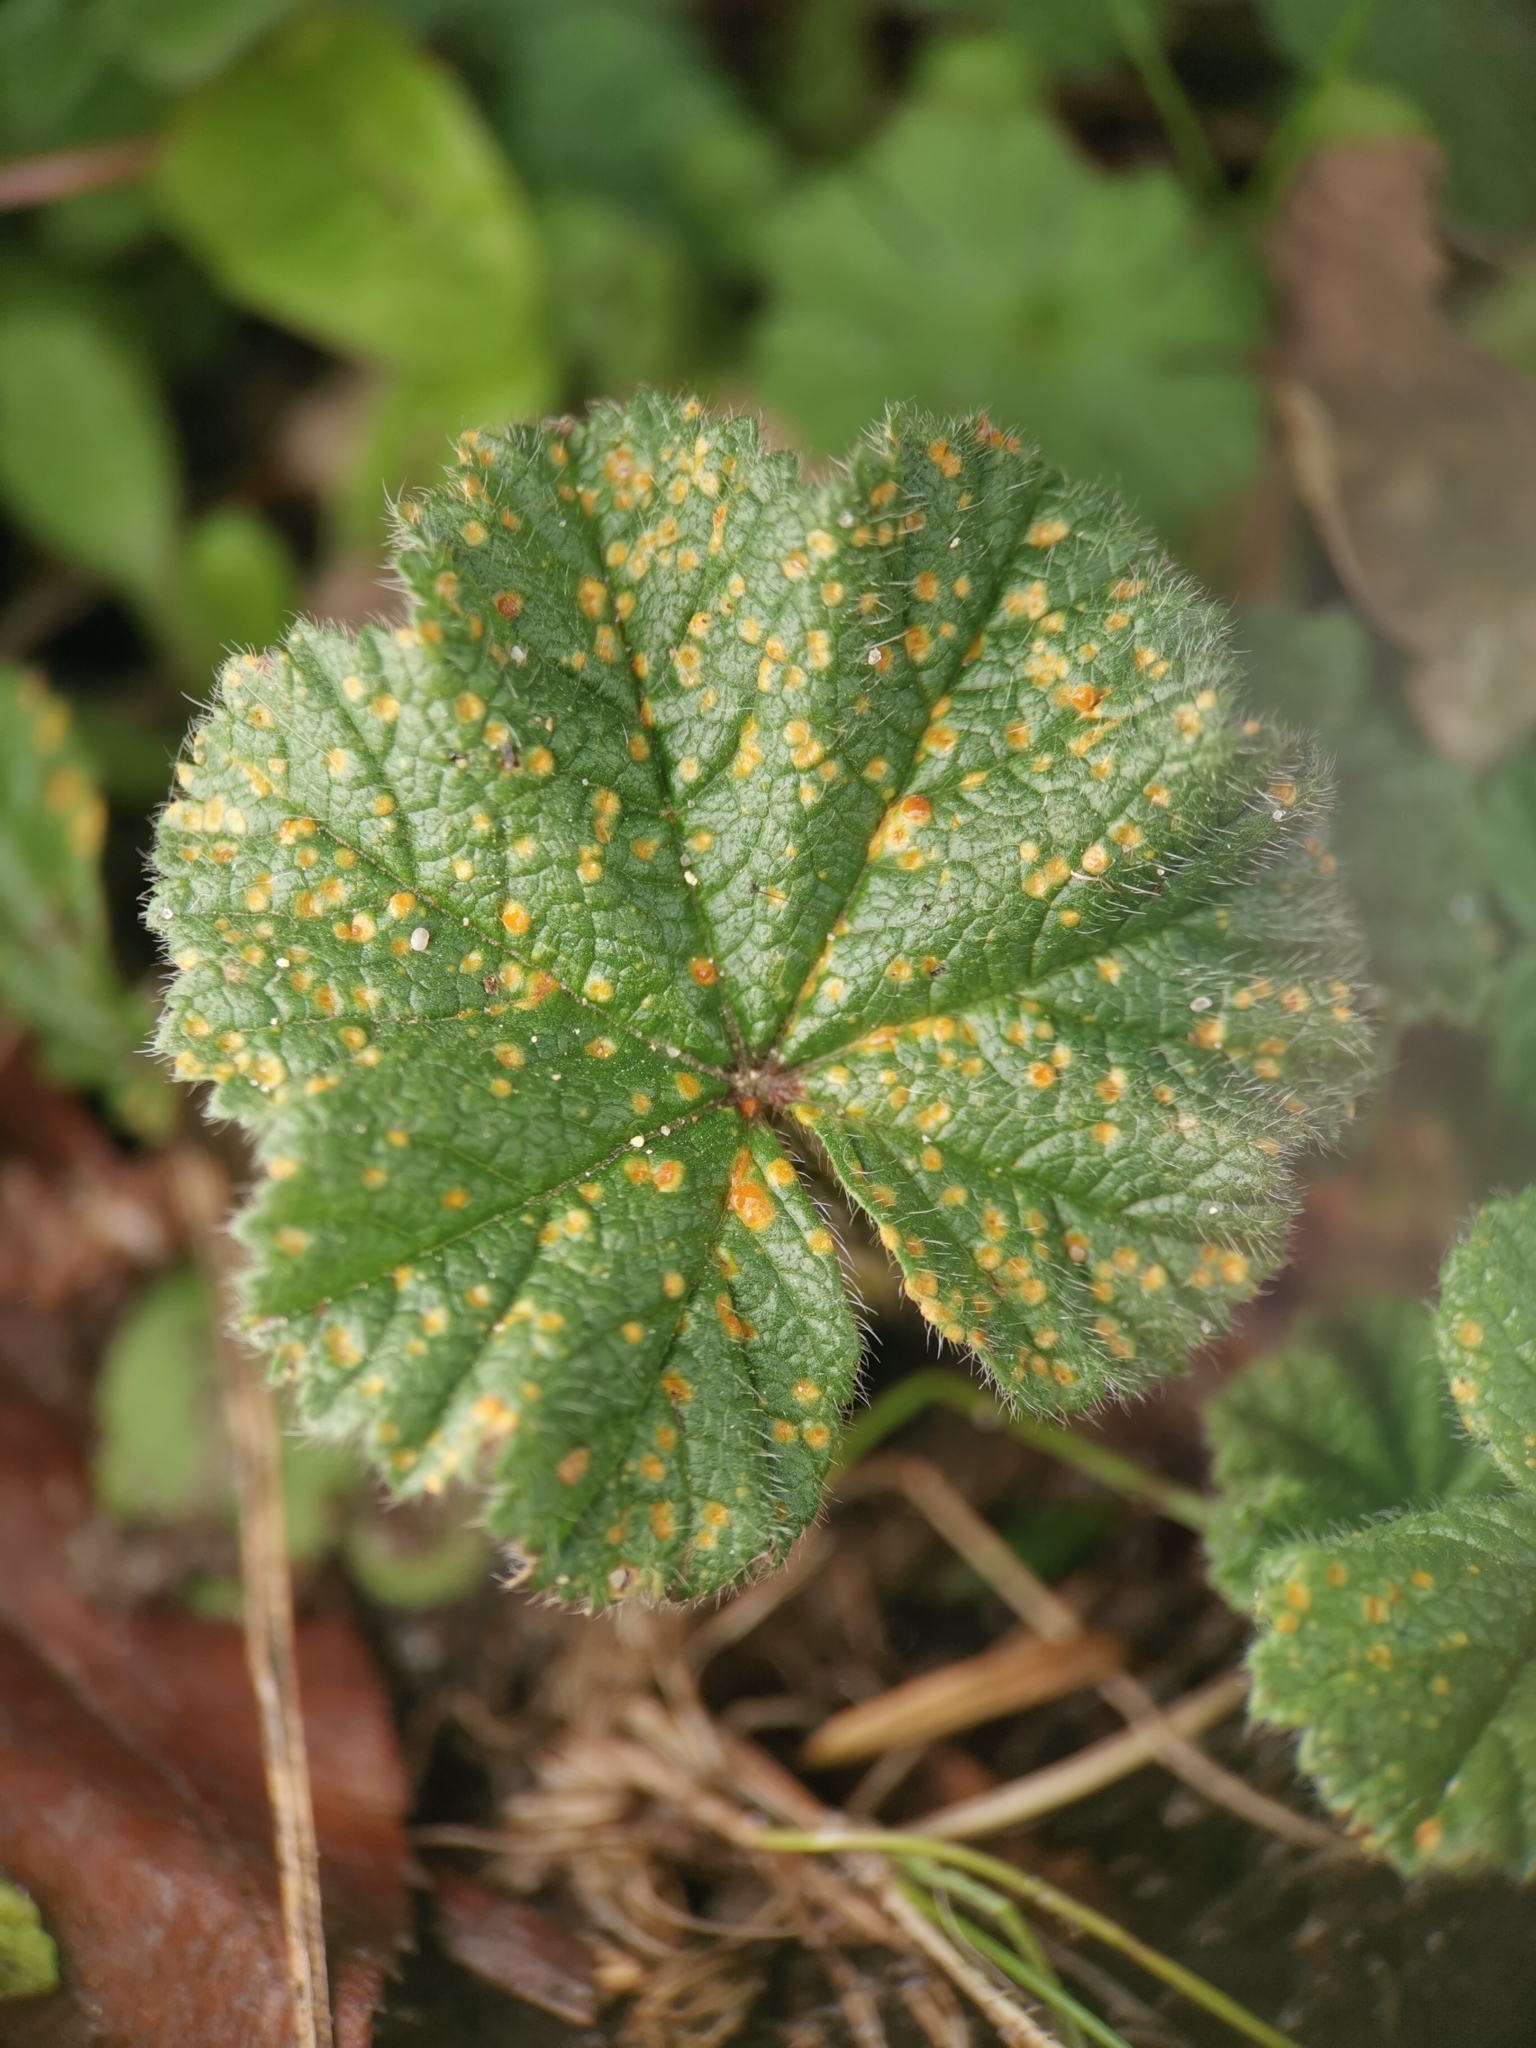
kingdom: Fungi
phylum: Basidiomycota
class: Pucciniomycetes
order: Pucciniales
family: Pucciniaceae
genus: Puccinia
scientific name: Puccinia malvacearum
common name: Hollyhock rust
